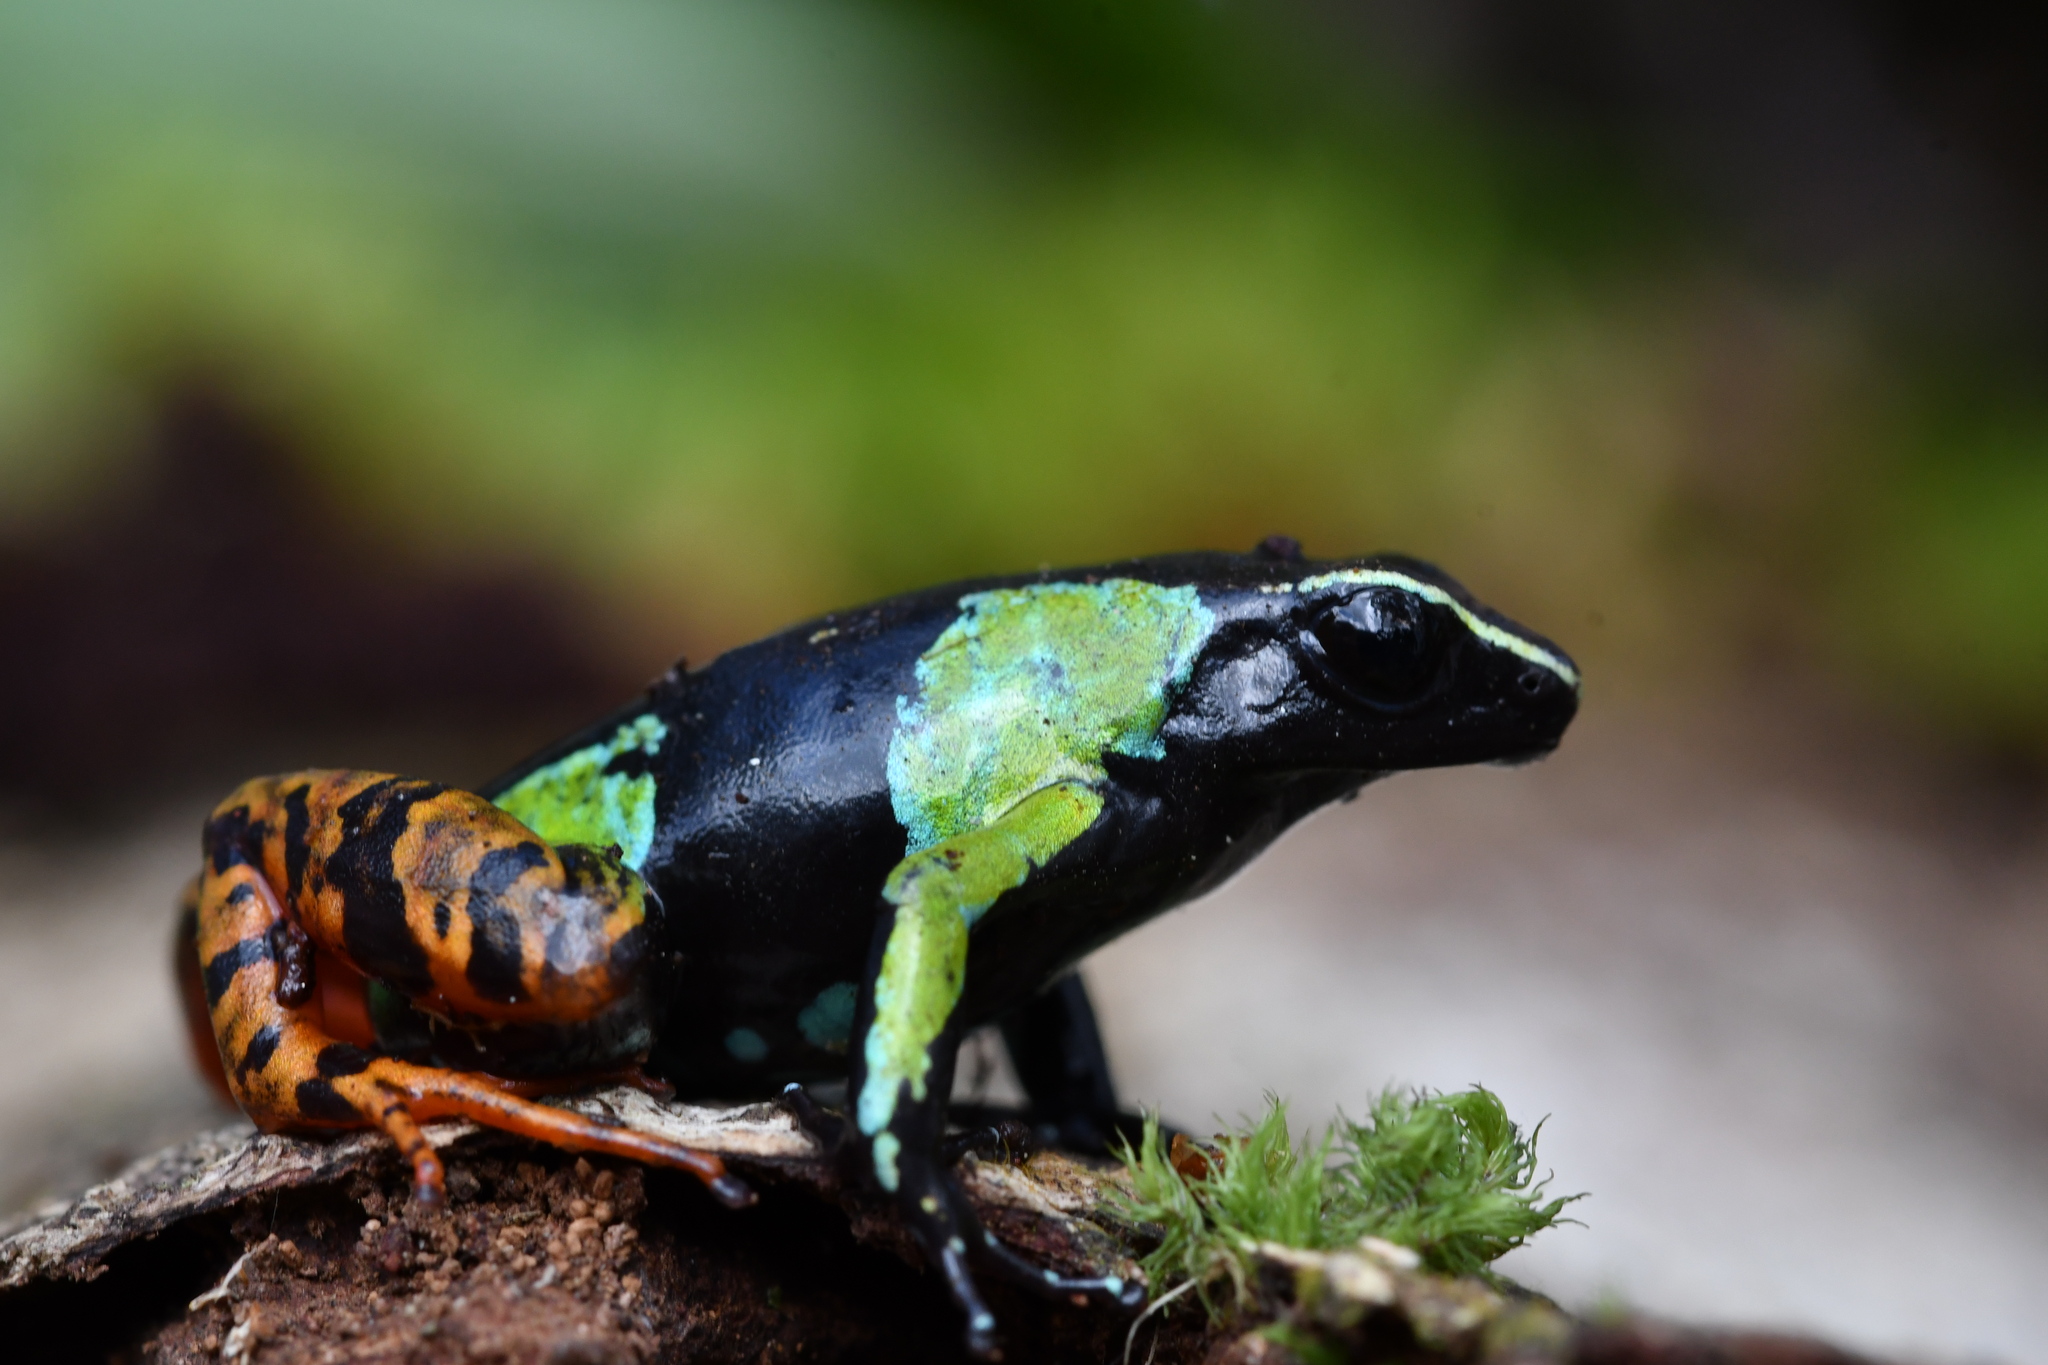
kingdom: Animalia
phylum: Chordata
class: Amphibia
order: Anura
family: Mantellidae
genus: Mantella
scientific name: Mantella baroni
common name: Baron's mantella
